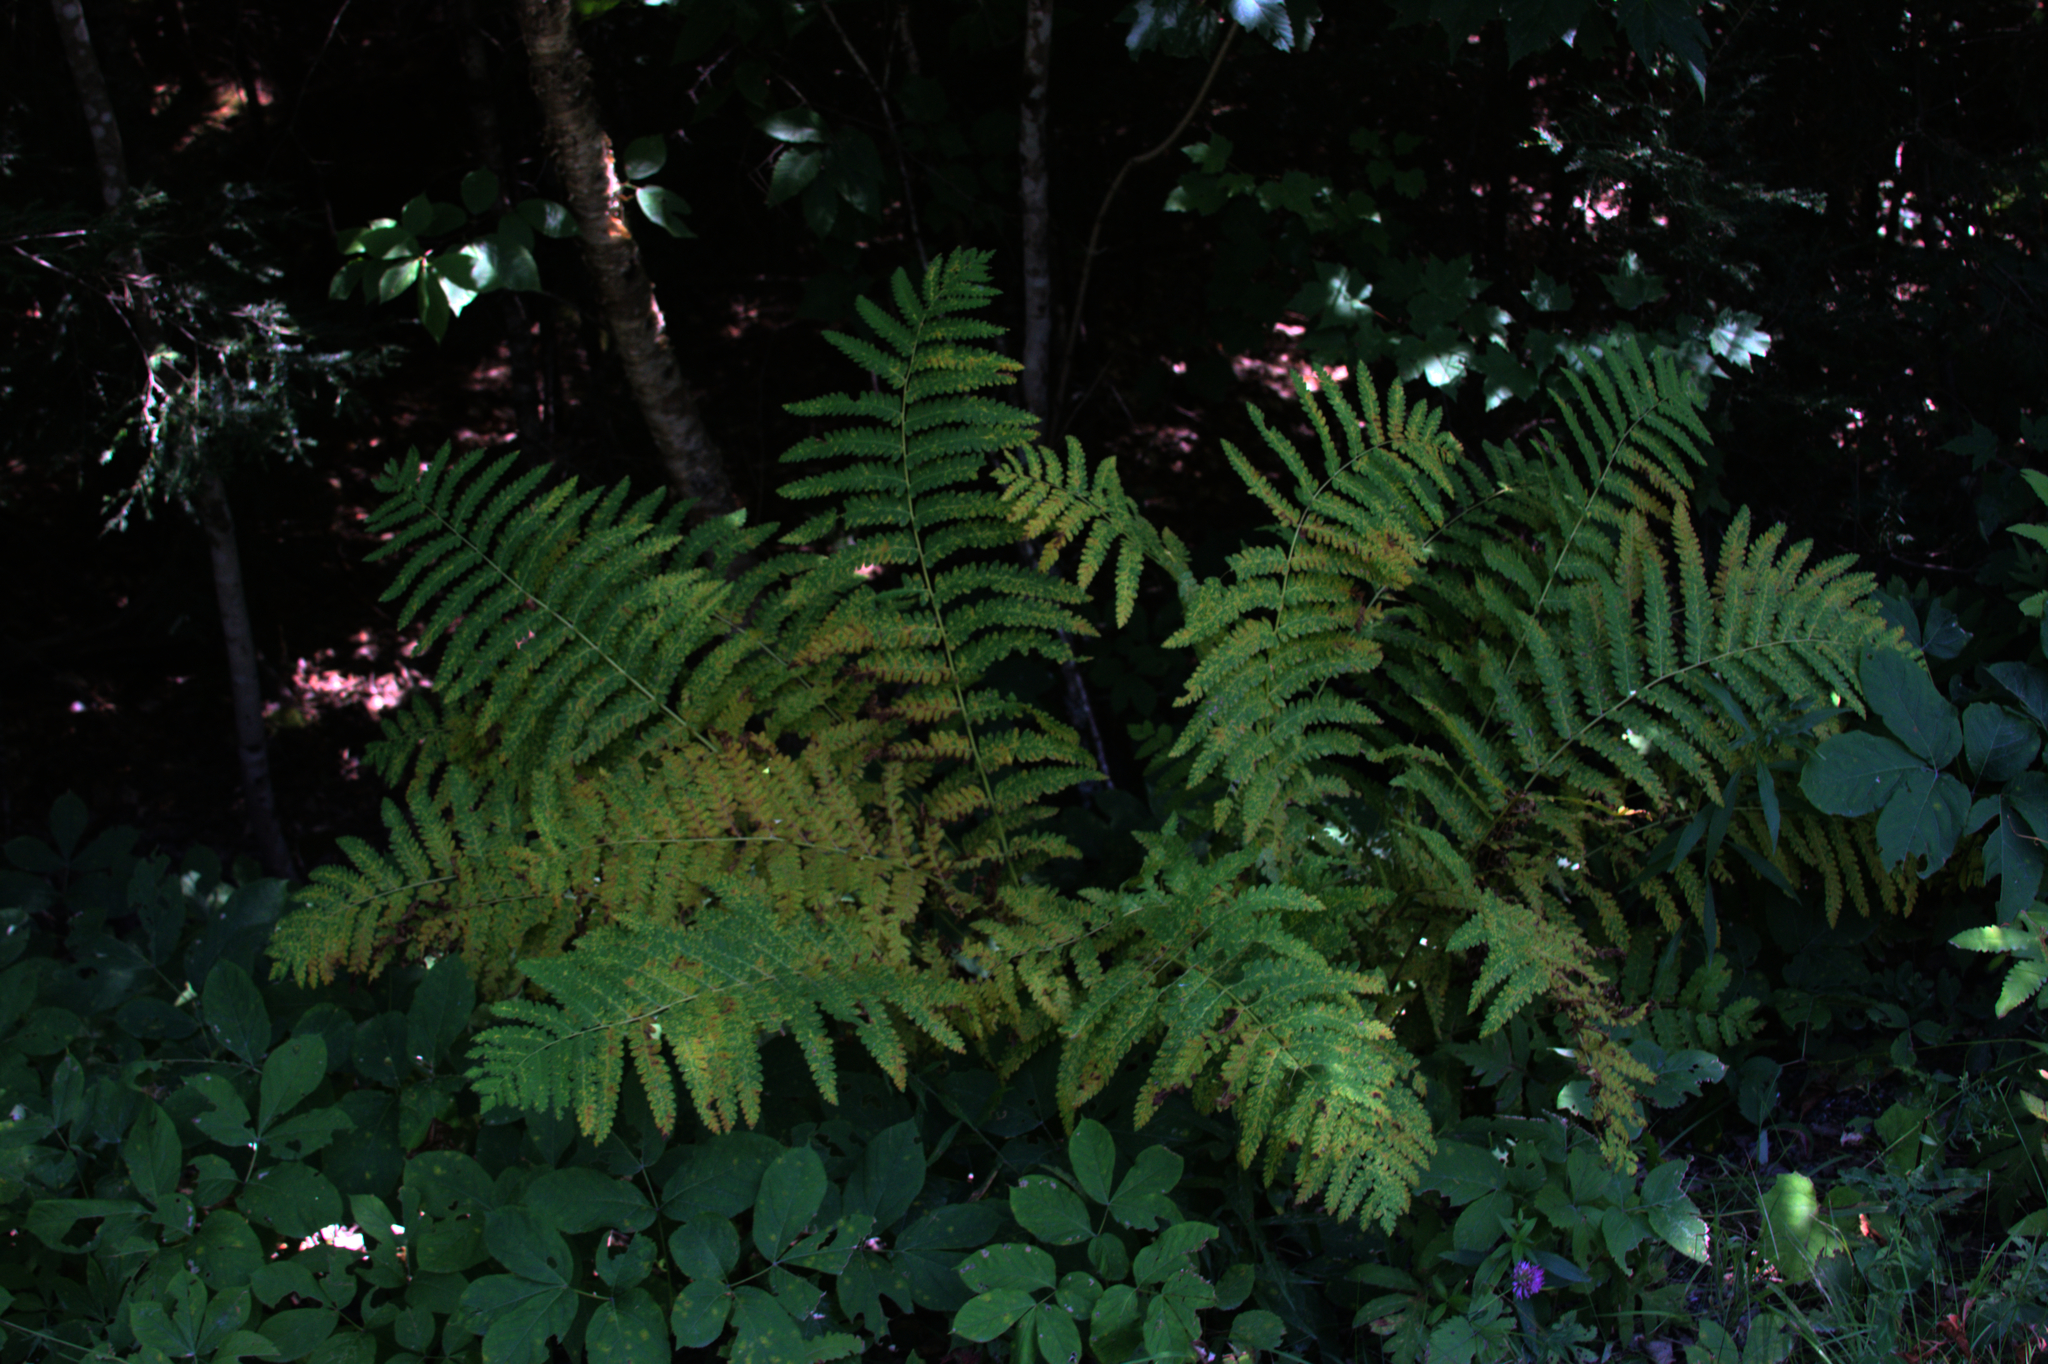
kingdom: Plantae
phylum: Tracheophyta
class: Polypodiopsida
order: Osmundales
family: Osmundaceae
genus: Claytosmunda
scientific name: Claytosmunda claytoniana
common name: Clayton's fern
